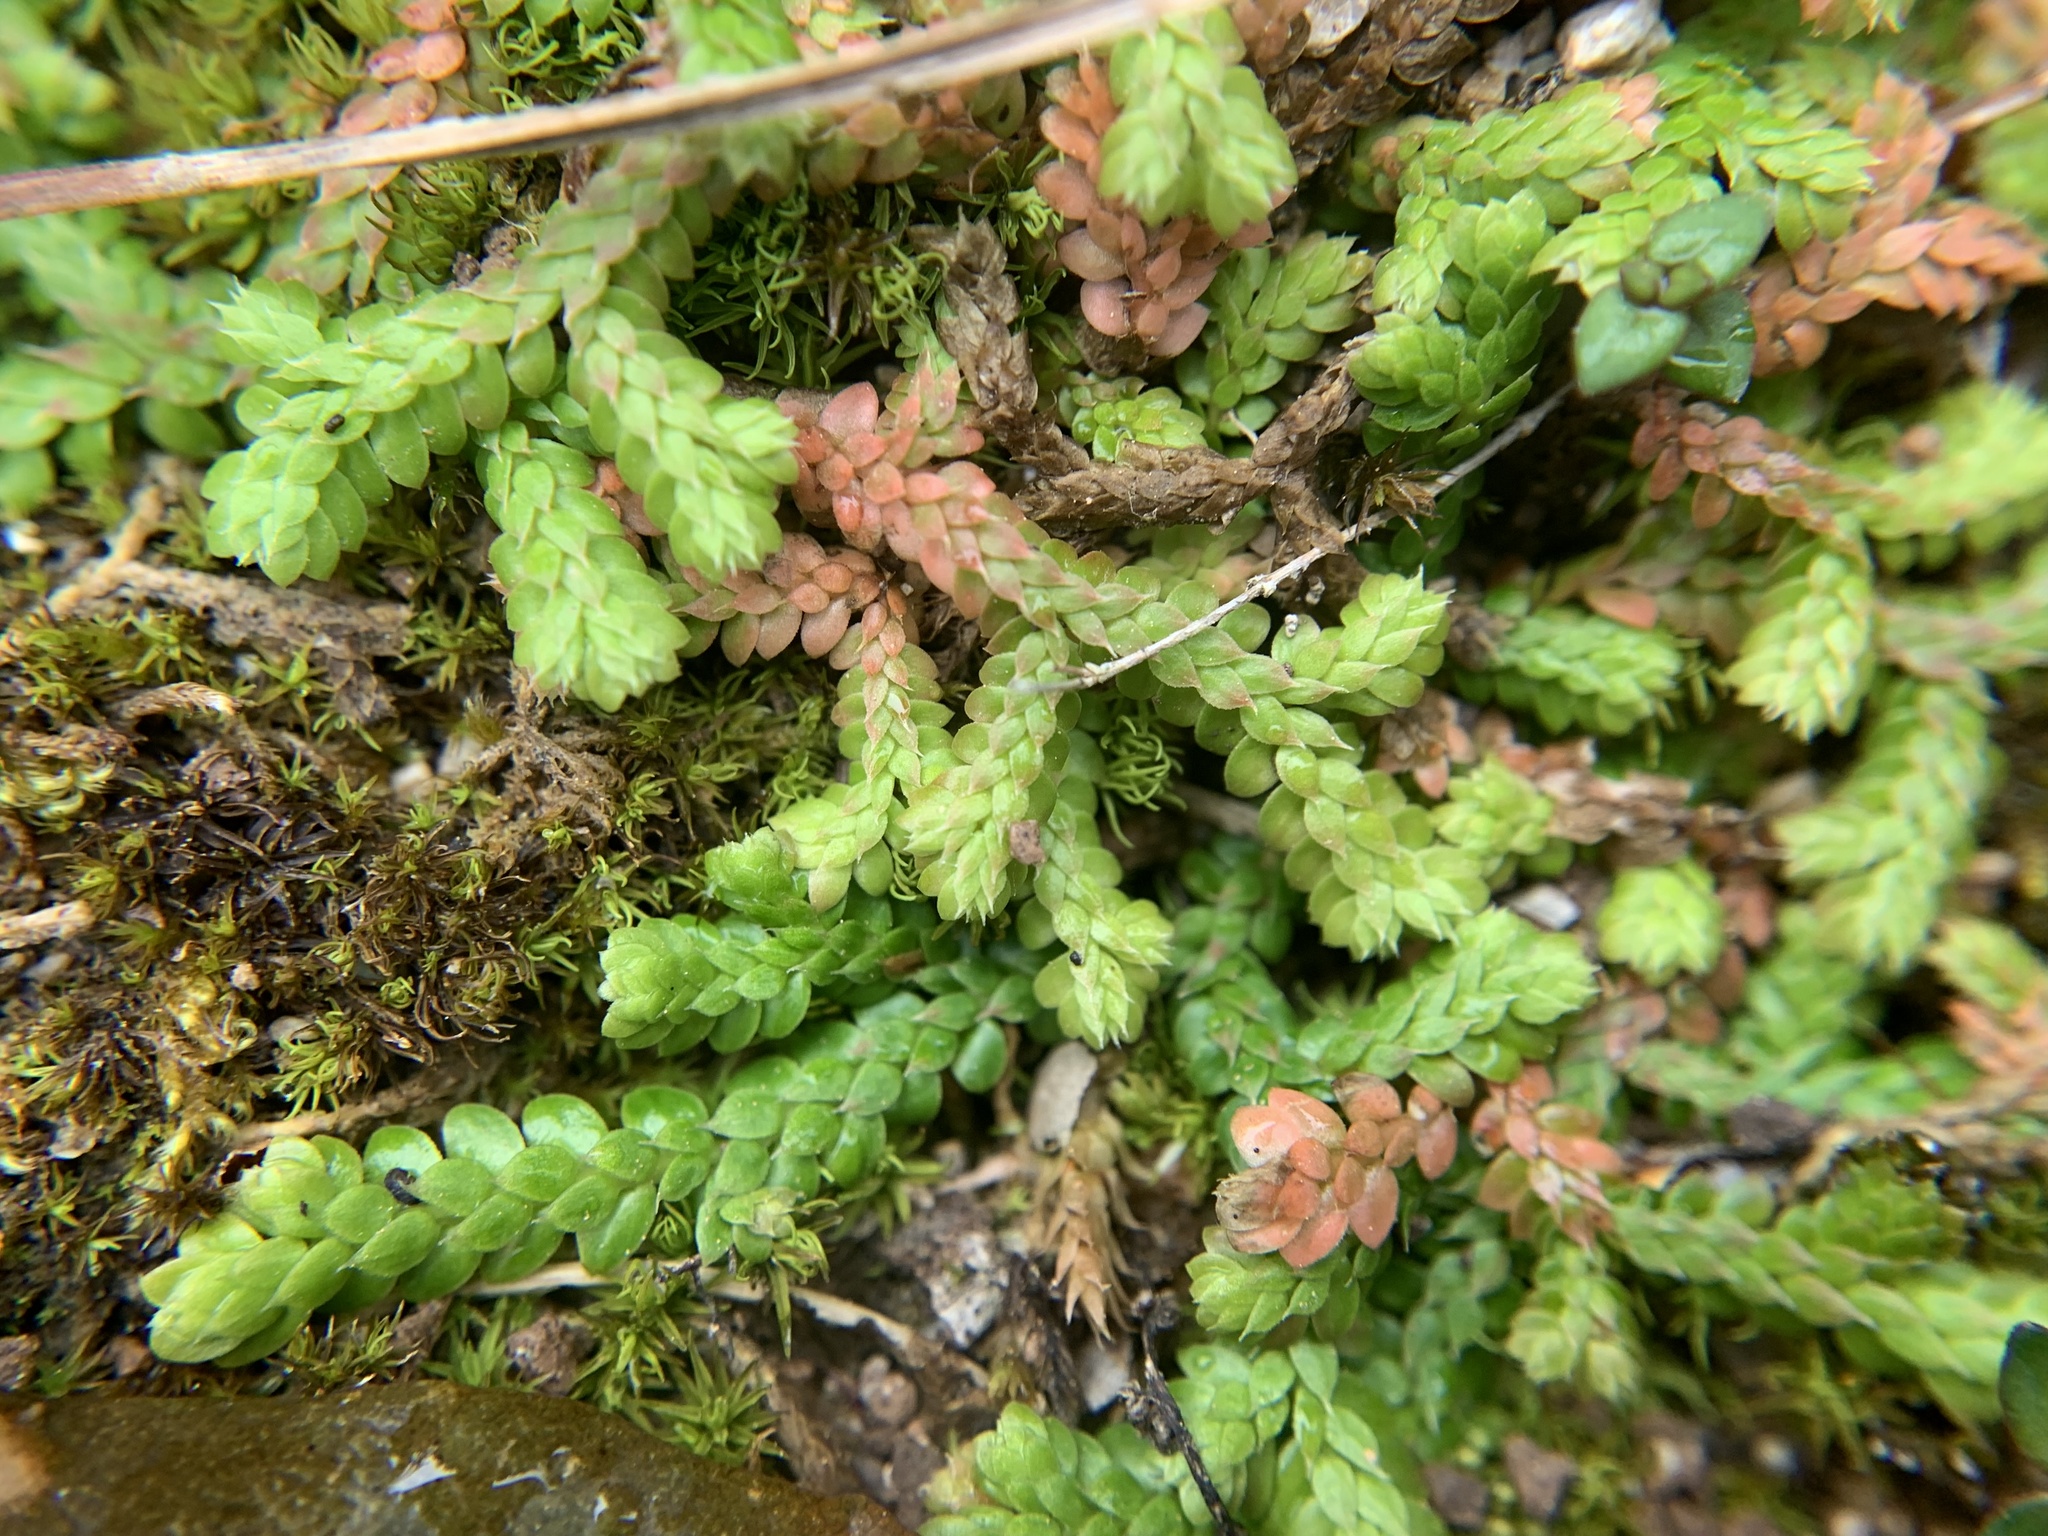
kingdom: Plantae
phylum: Tracheophyta
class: Lycopodiopsida
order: Selaginellales
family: Selaginellaceae
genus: Selaginella
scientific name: Selaginella denticulata
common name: Toothed-leaved clubmoss
